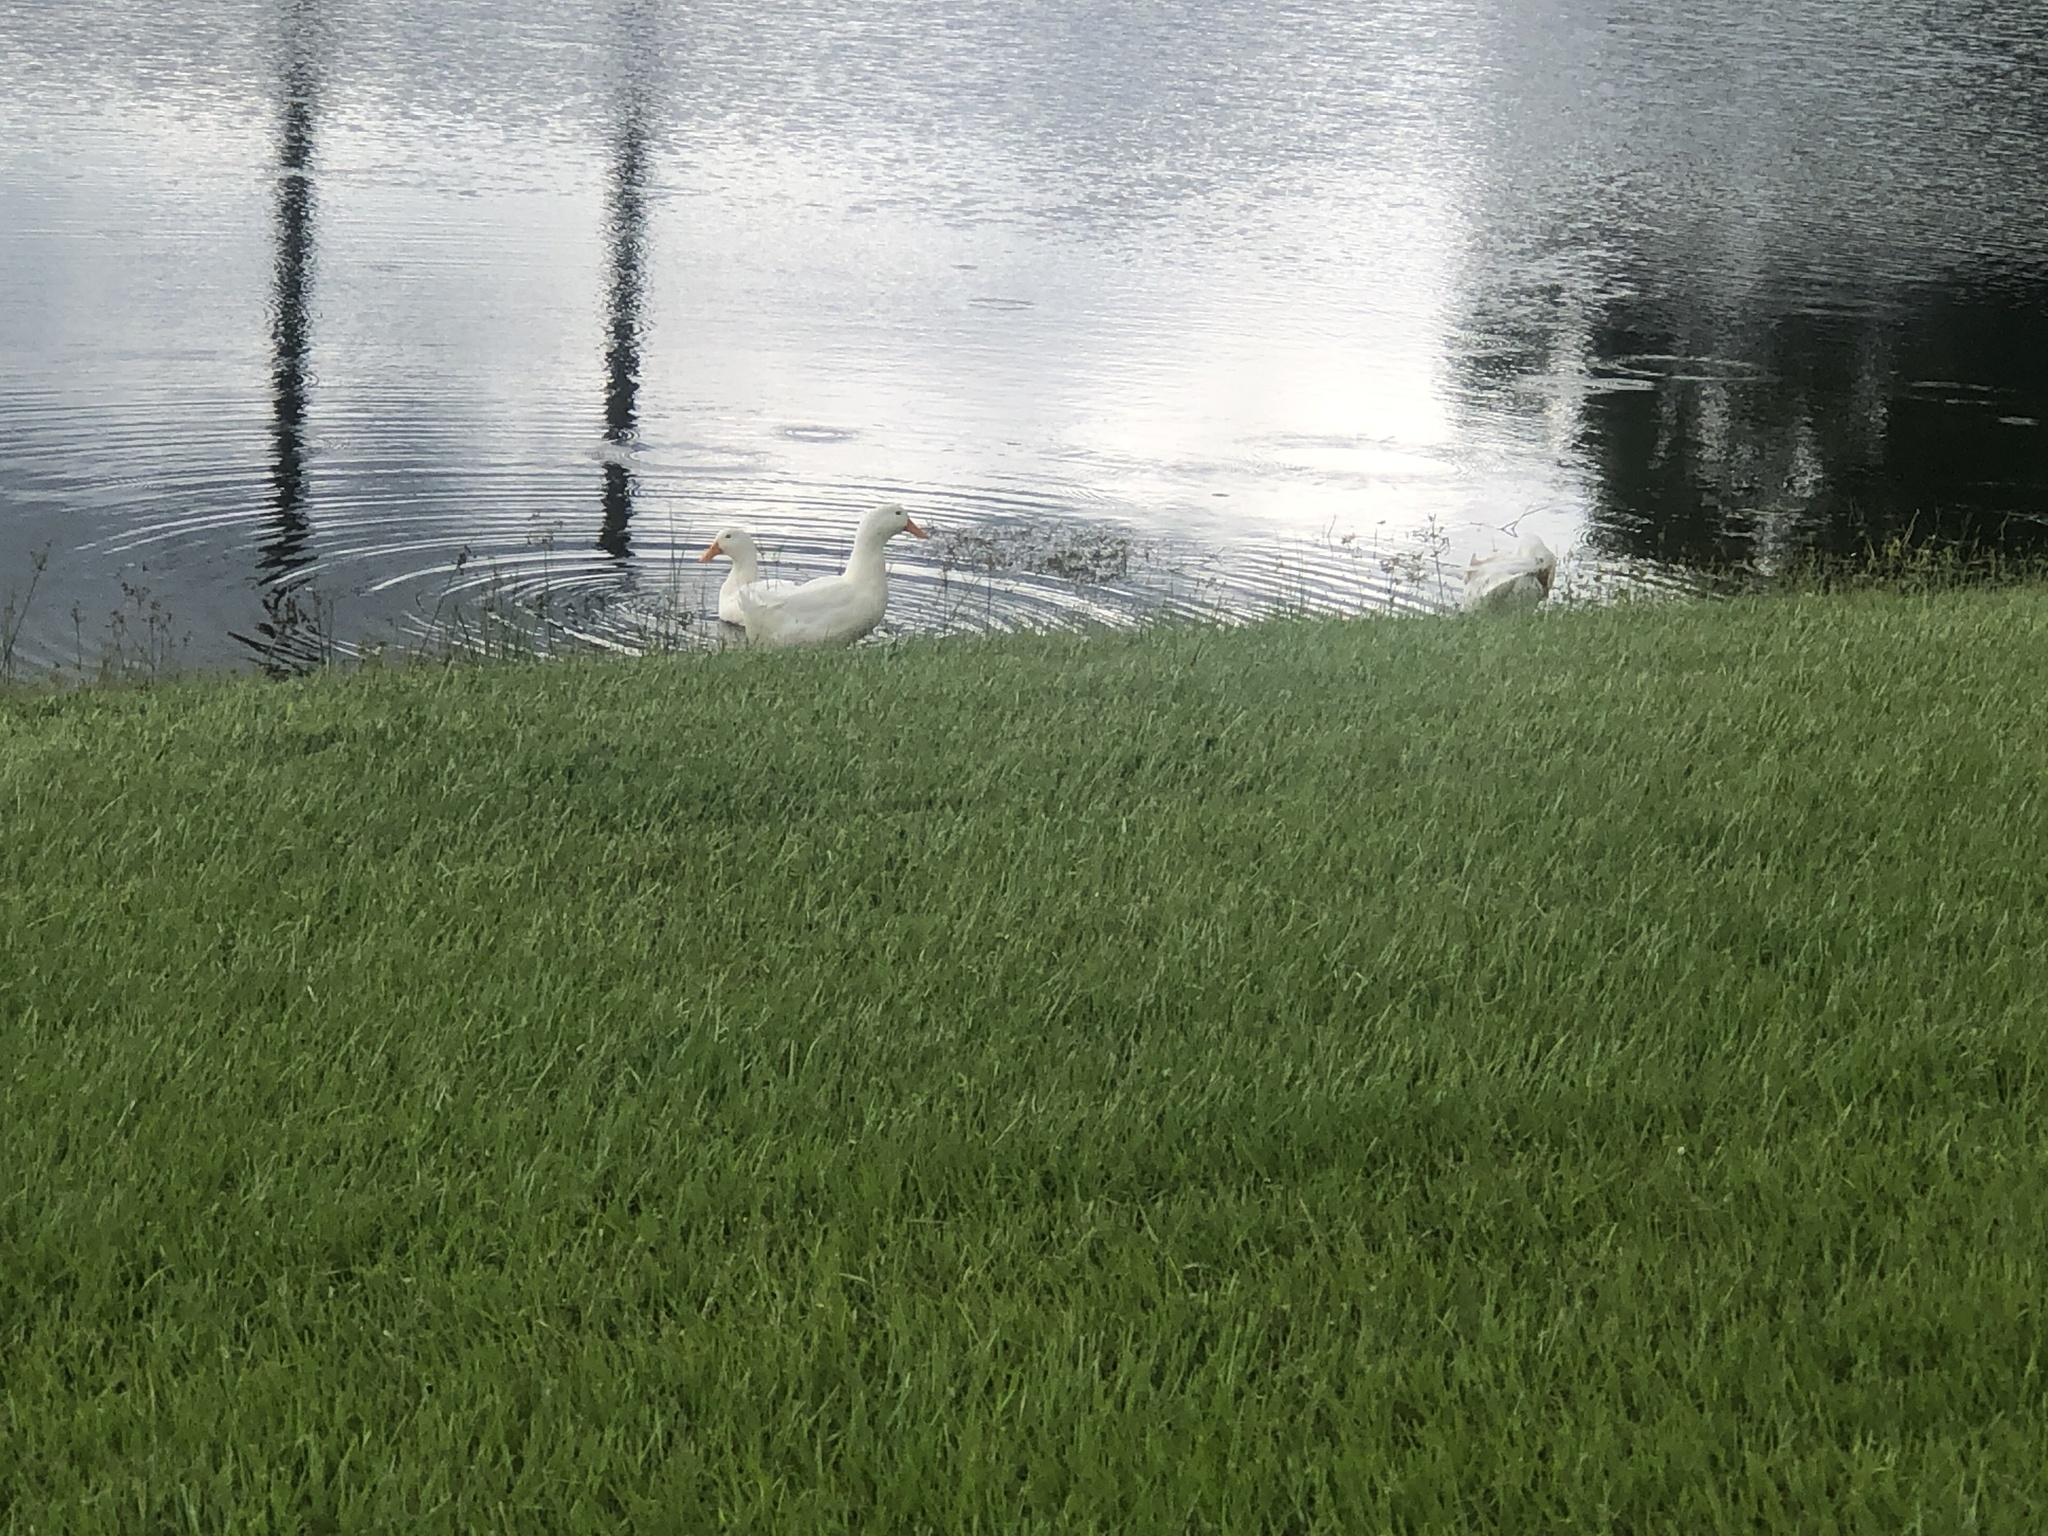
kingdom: Animalia
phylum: Chordata
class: Aves
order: Anseriformes
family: Anatidae
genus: Anas
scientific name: Anas platyrhynchos
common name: Mallard
